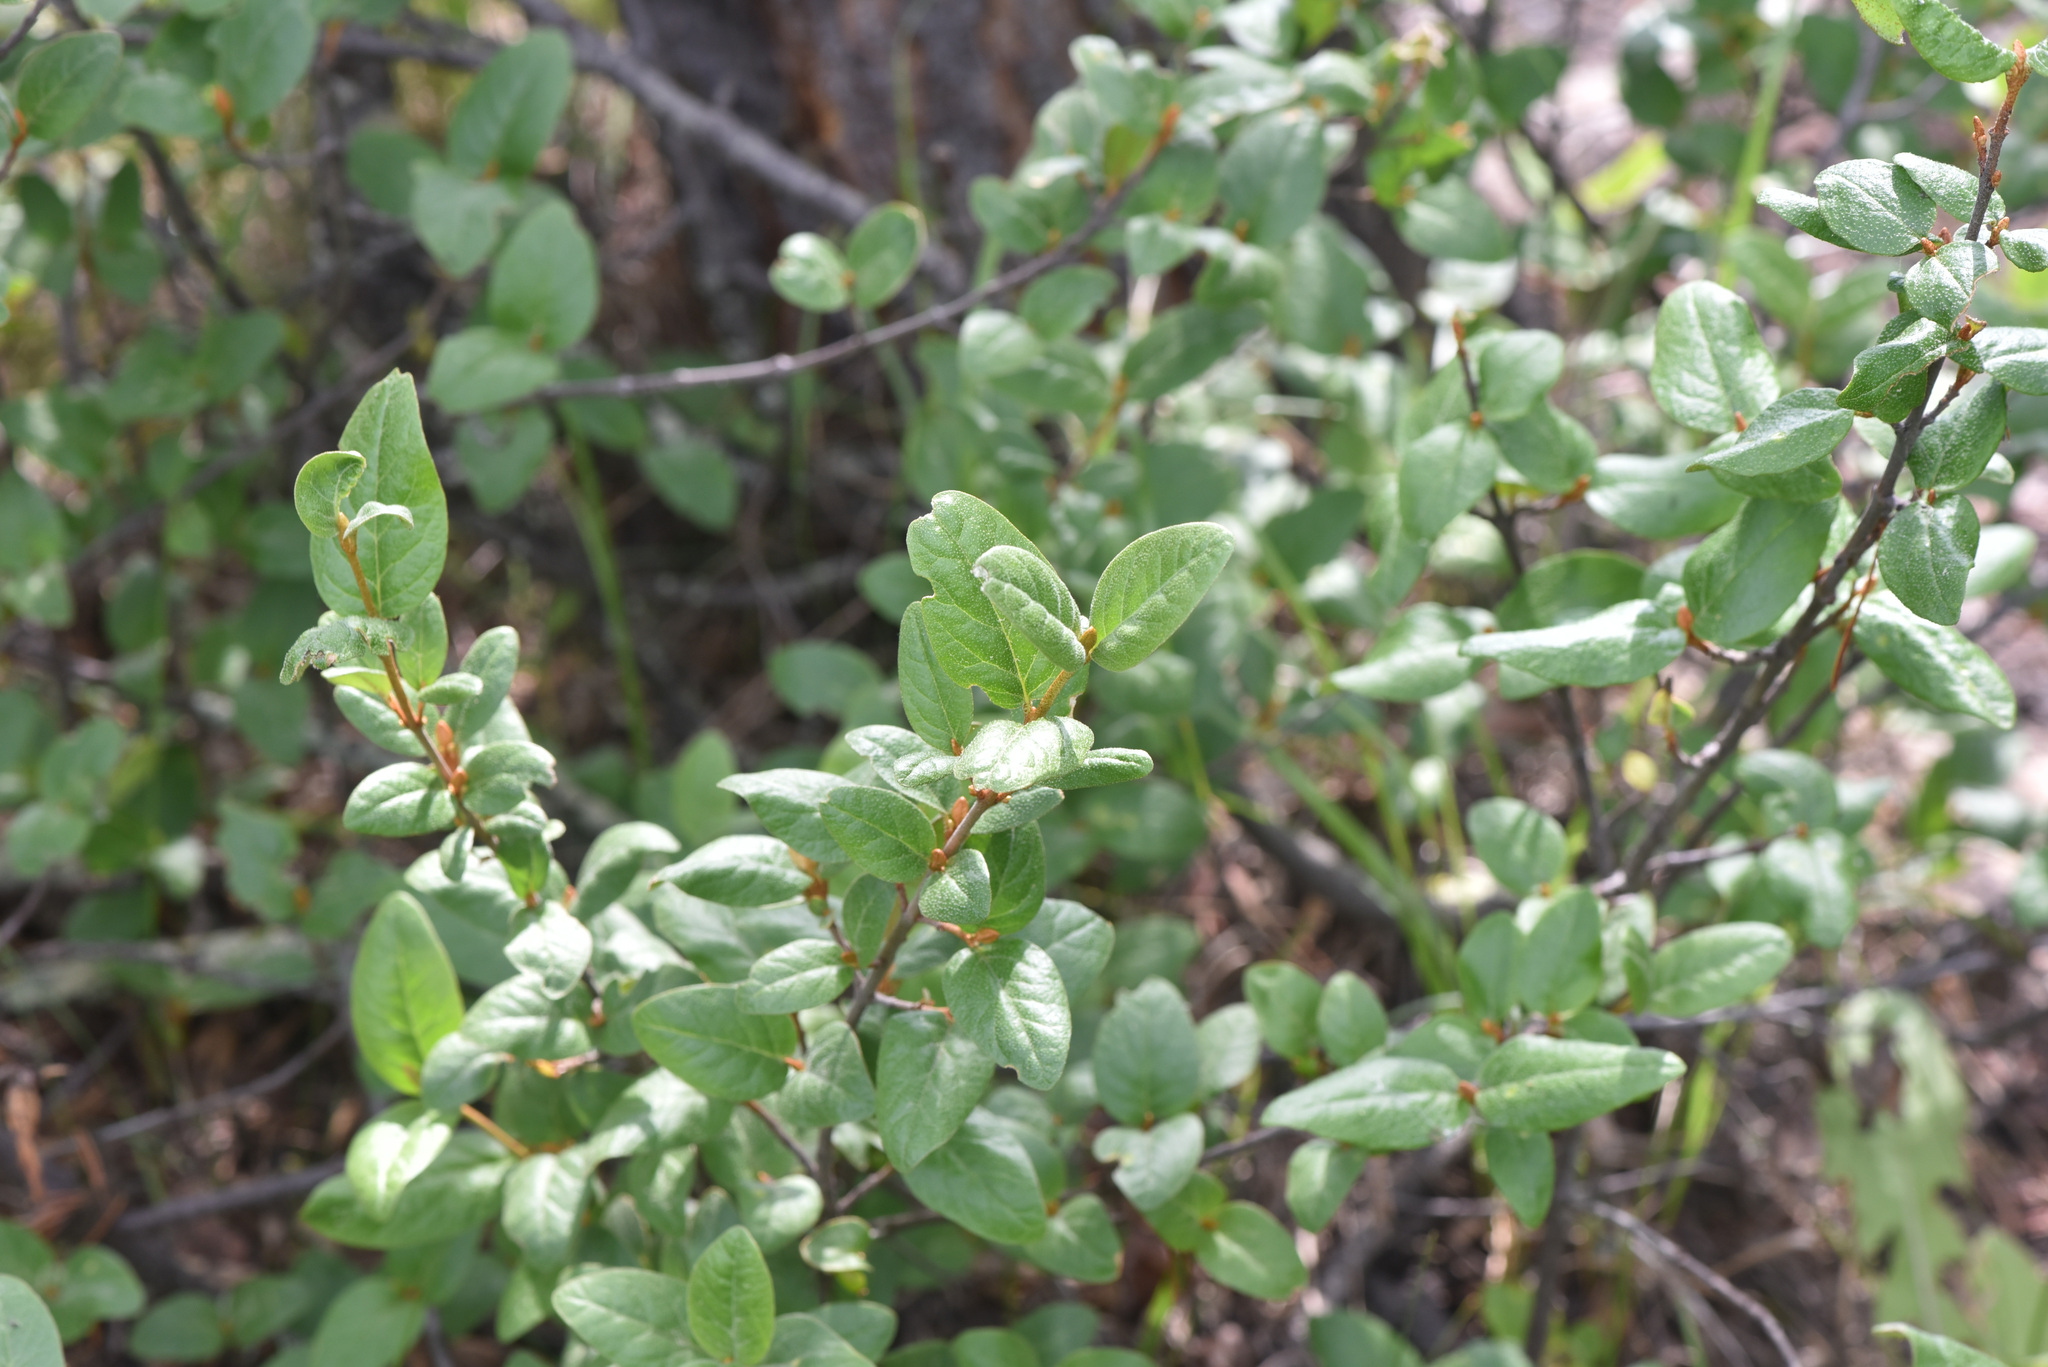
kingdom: Plantae
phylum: Tracheophyta
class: Magnoliopsida
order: Rosales
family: Elaeagnaceae
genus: Shepherdia
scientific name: Shepherdia canadensis
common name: Soapberry
